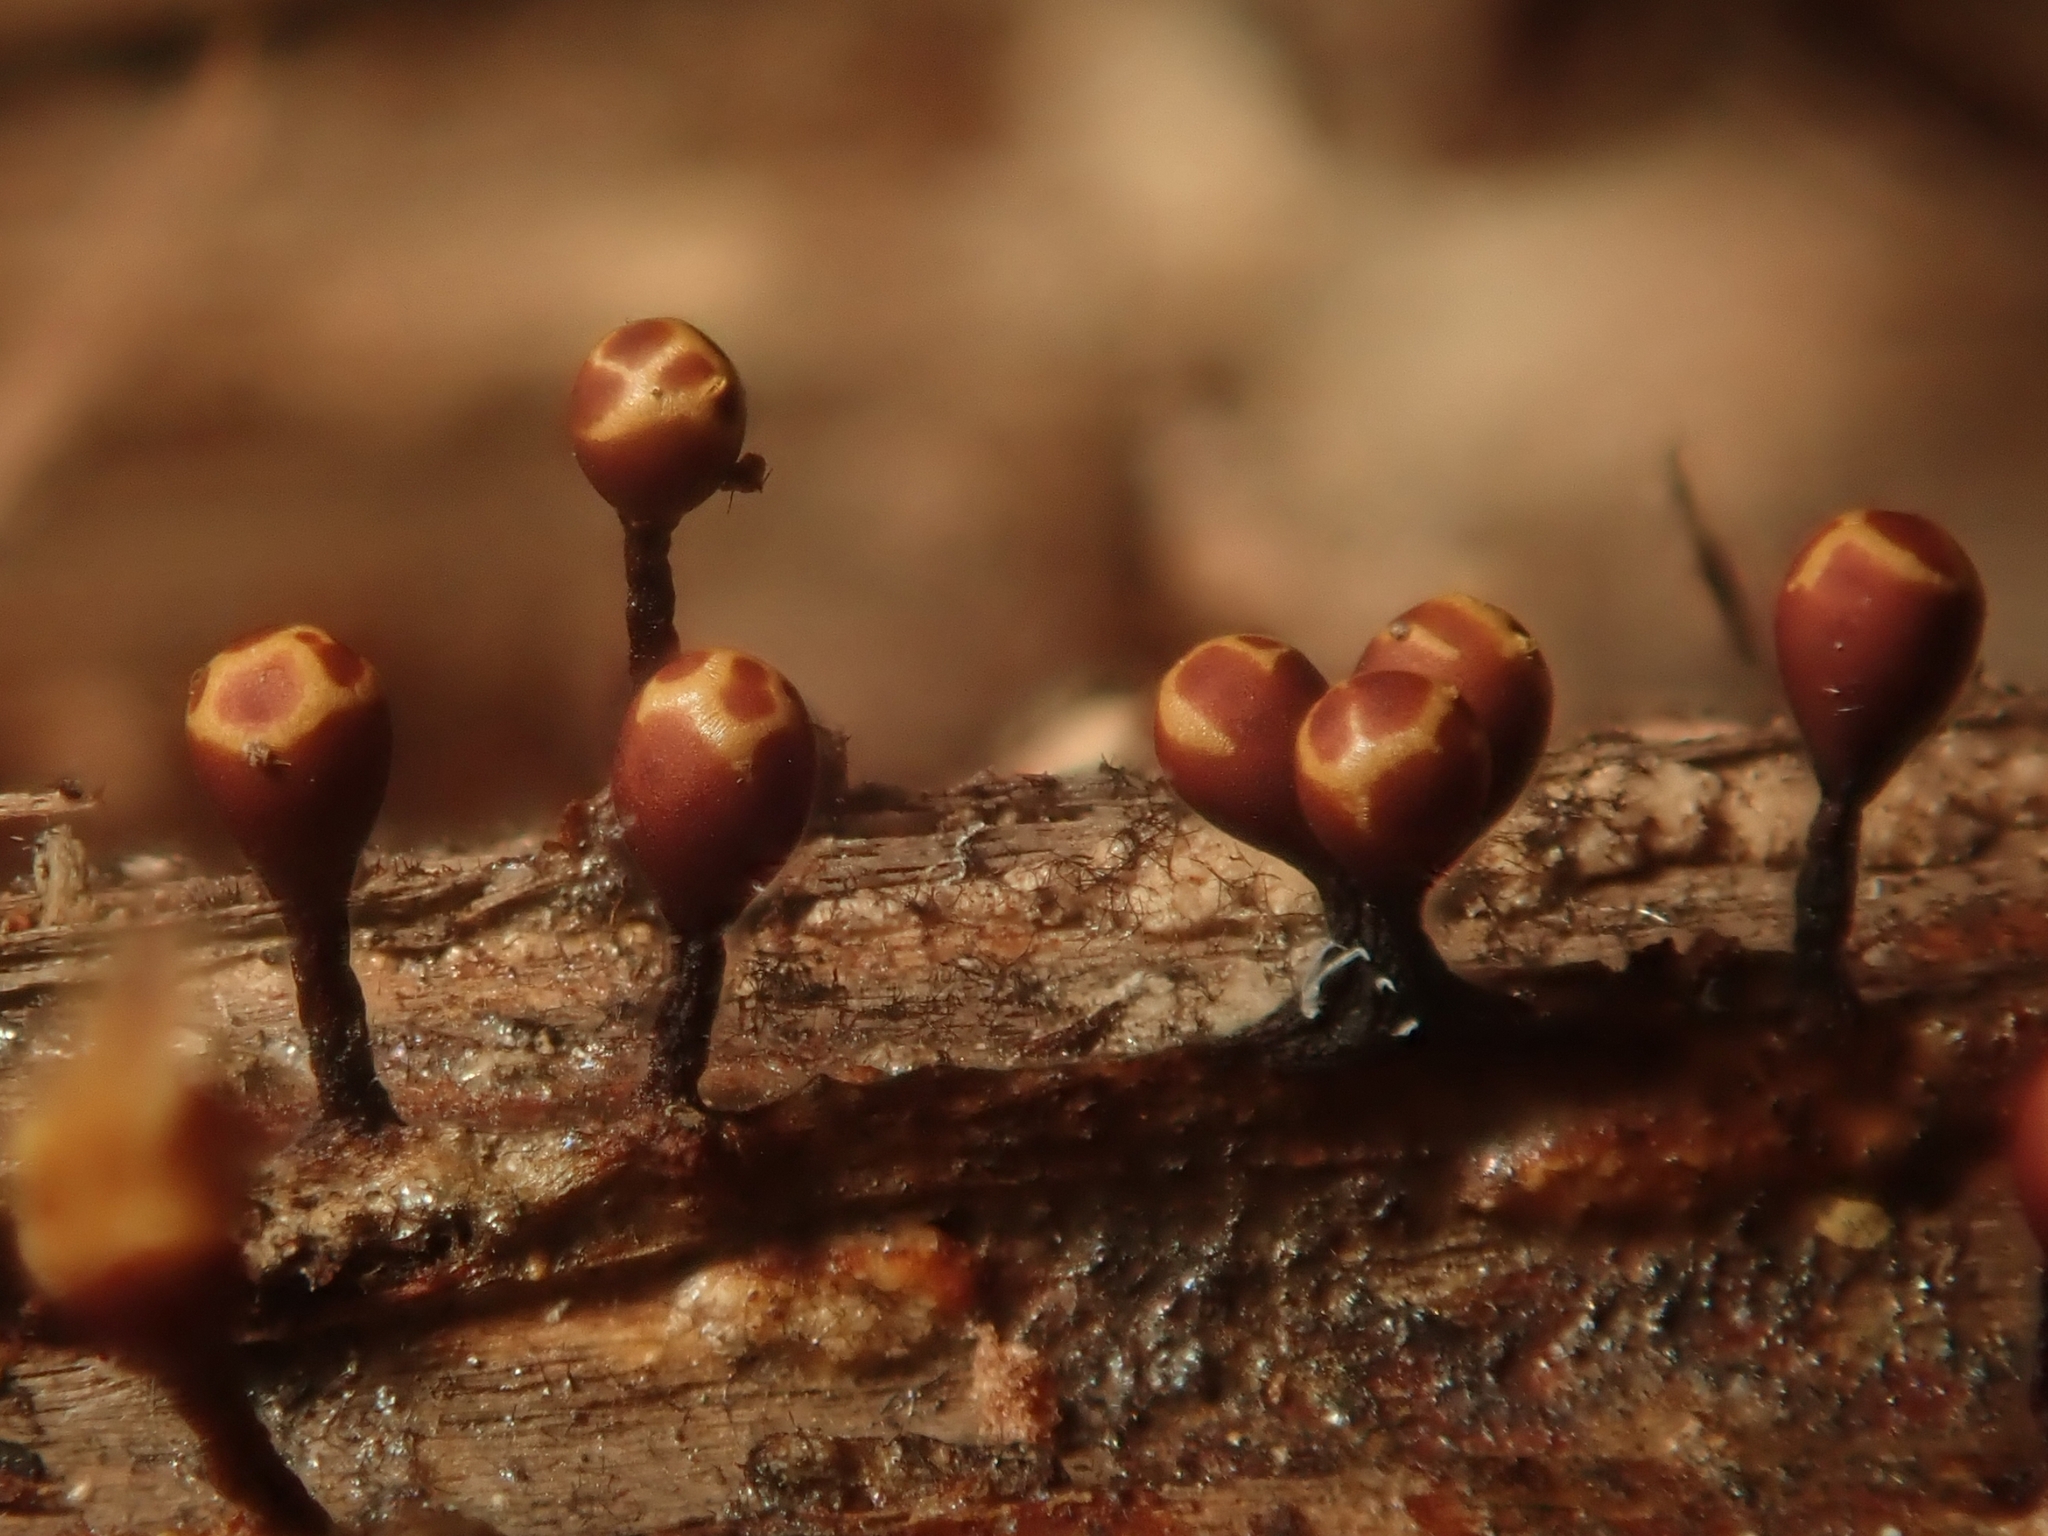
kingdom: Protozoa
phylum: Mycetozoa
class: Myxomycetes
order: Trichiales
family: Trichiaceae
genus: Trichia
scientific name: Trichia botrytis
